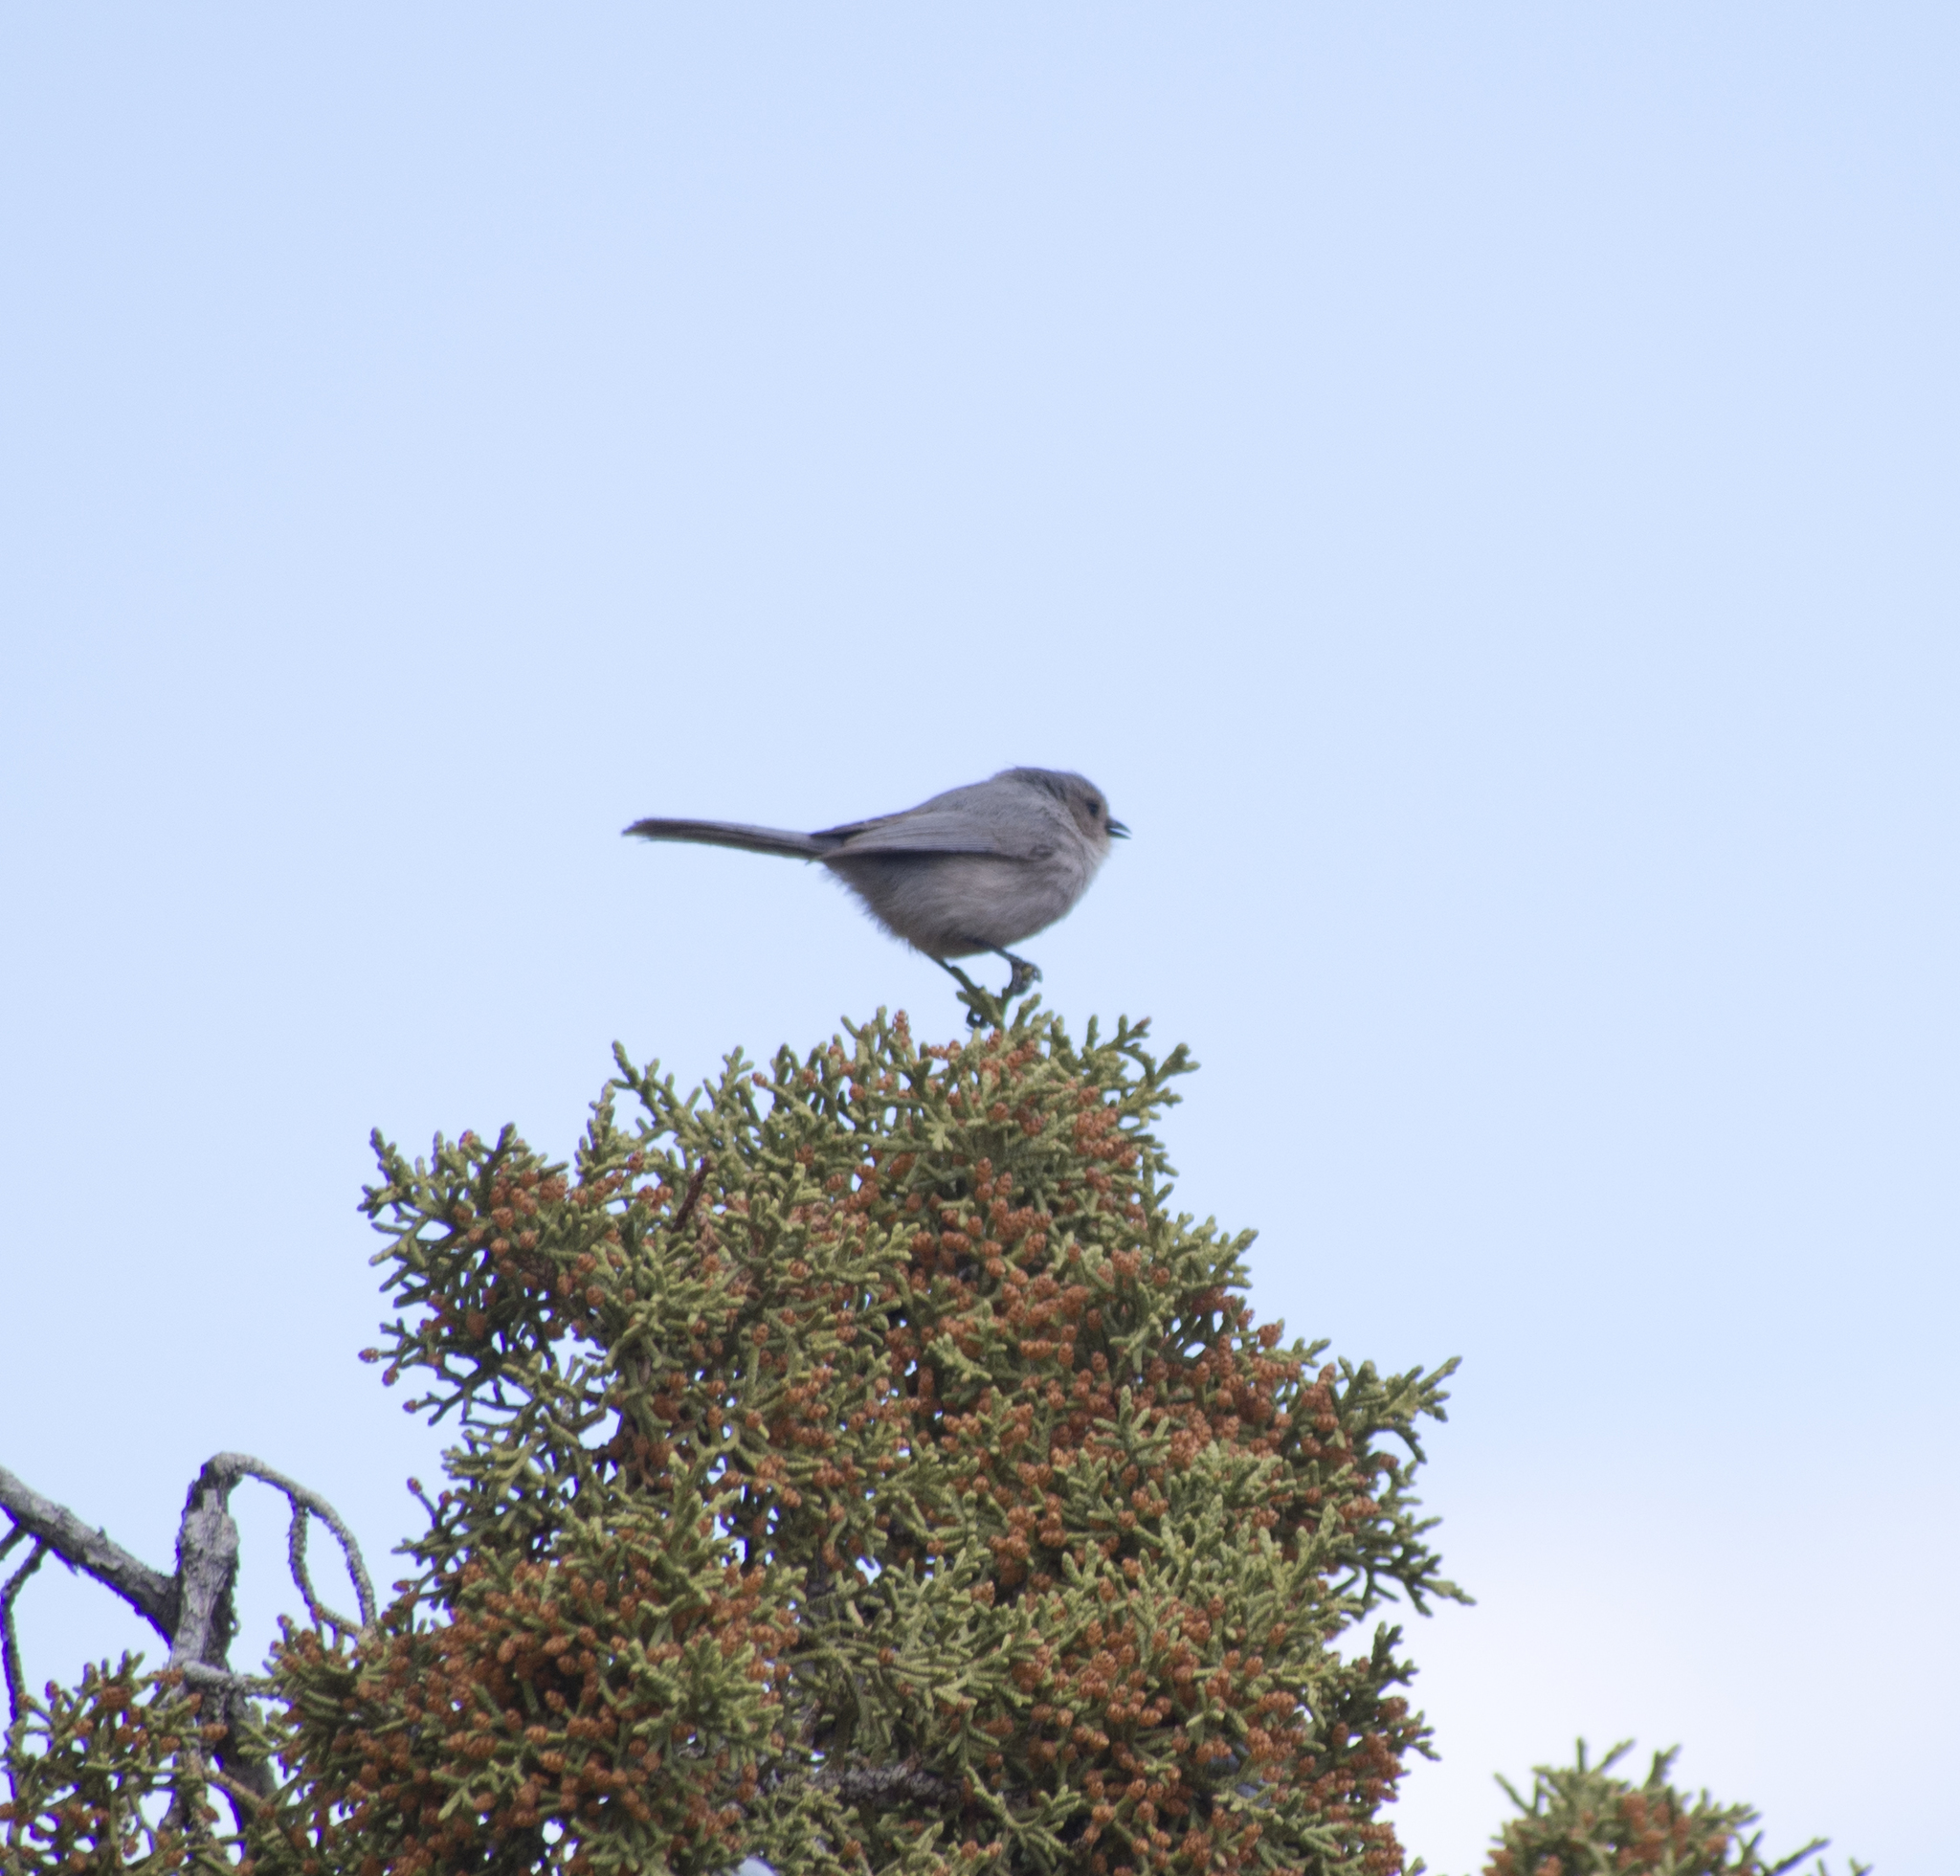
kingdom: Animalia
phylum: Chordata
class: Aves
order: Passeriformes
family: Aegithalidae
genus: Psaltriparus
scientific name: Psaltriparus minimus
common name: American bushtit
